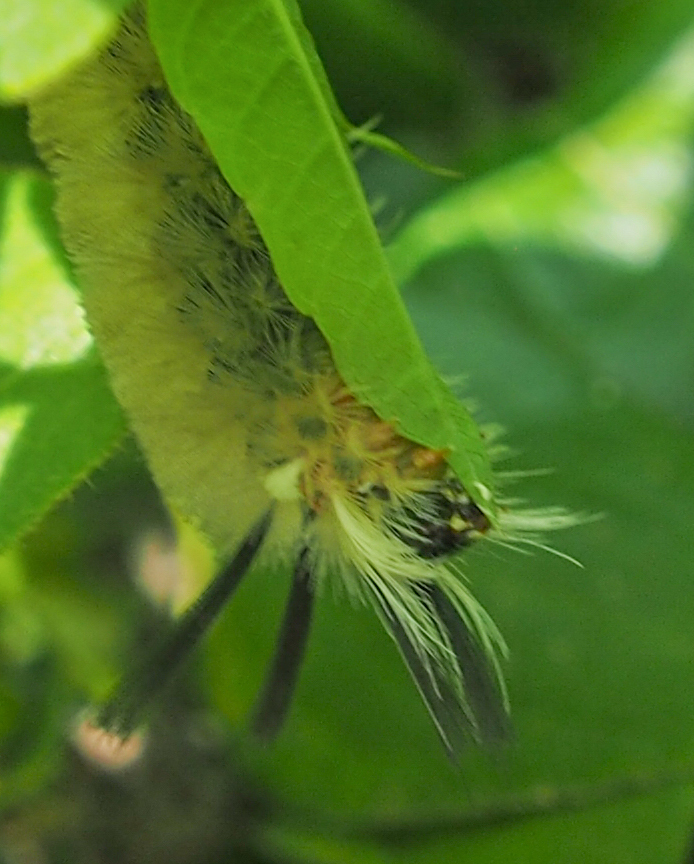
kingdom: Animalia
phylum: Arthropoda
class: Insecta
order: Lepidoptera
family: Erebidae
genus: Halysidota
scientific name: Halysidota tessellaris
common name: Banded tussock moth
